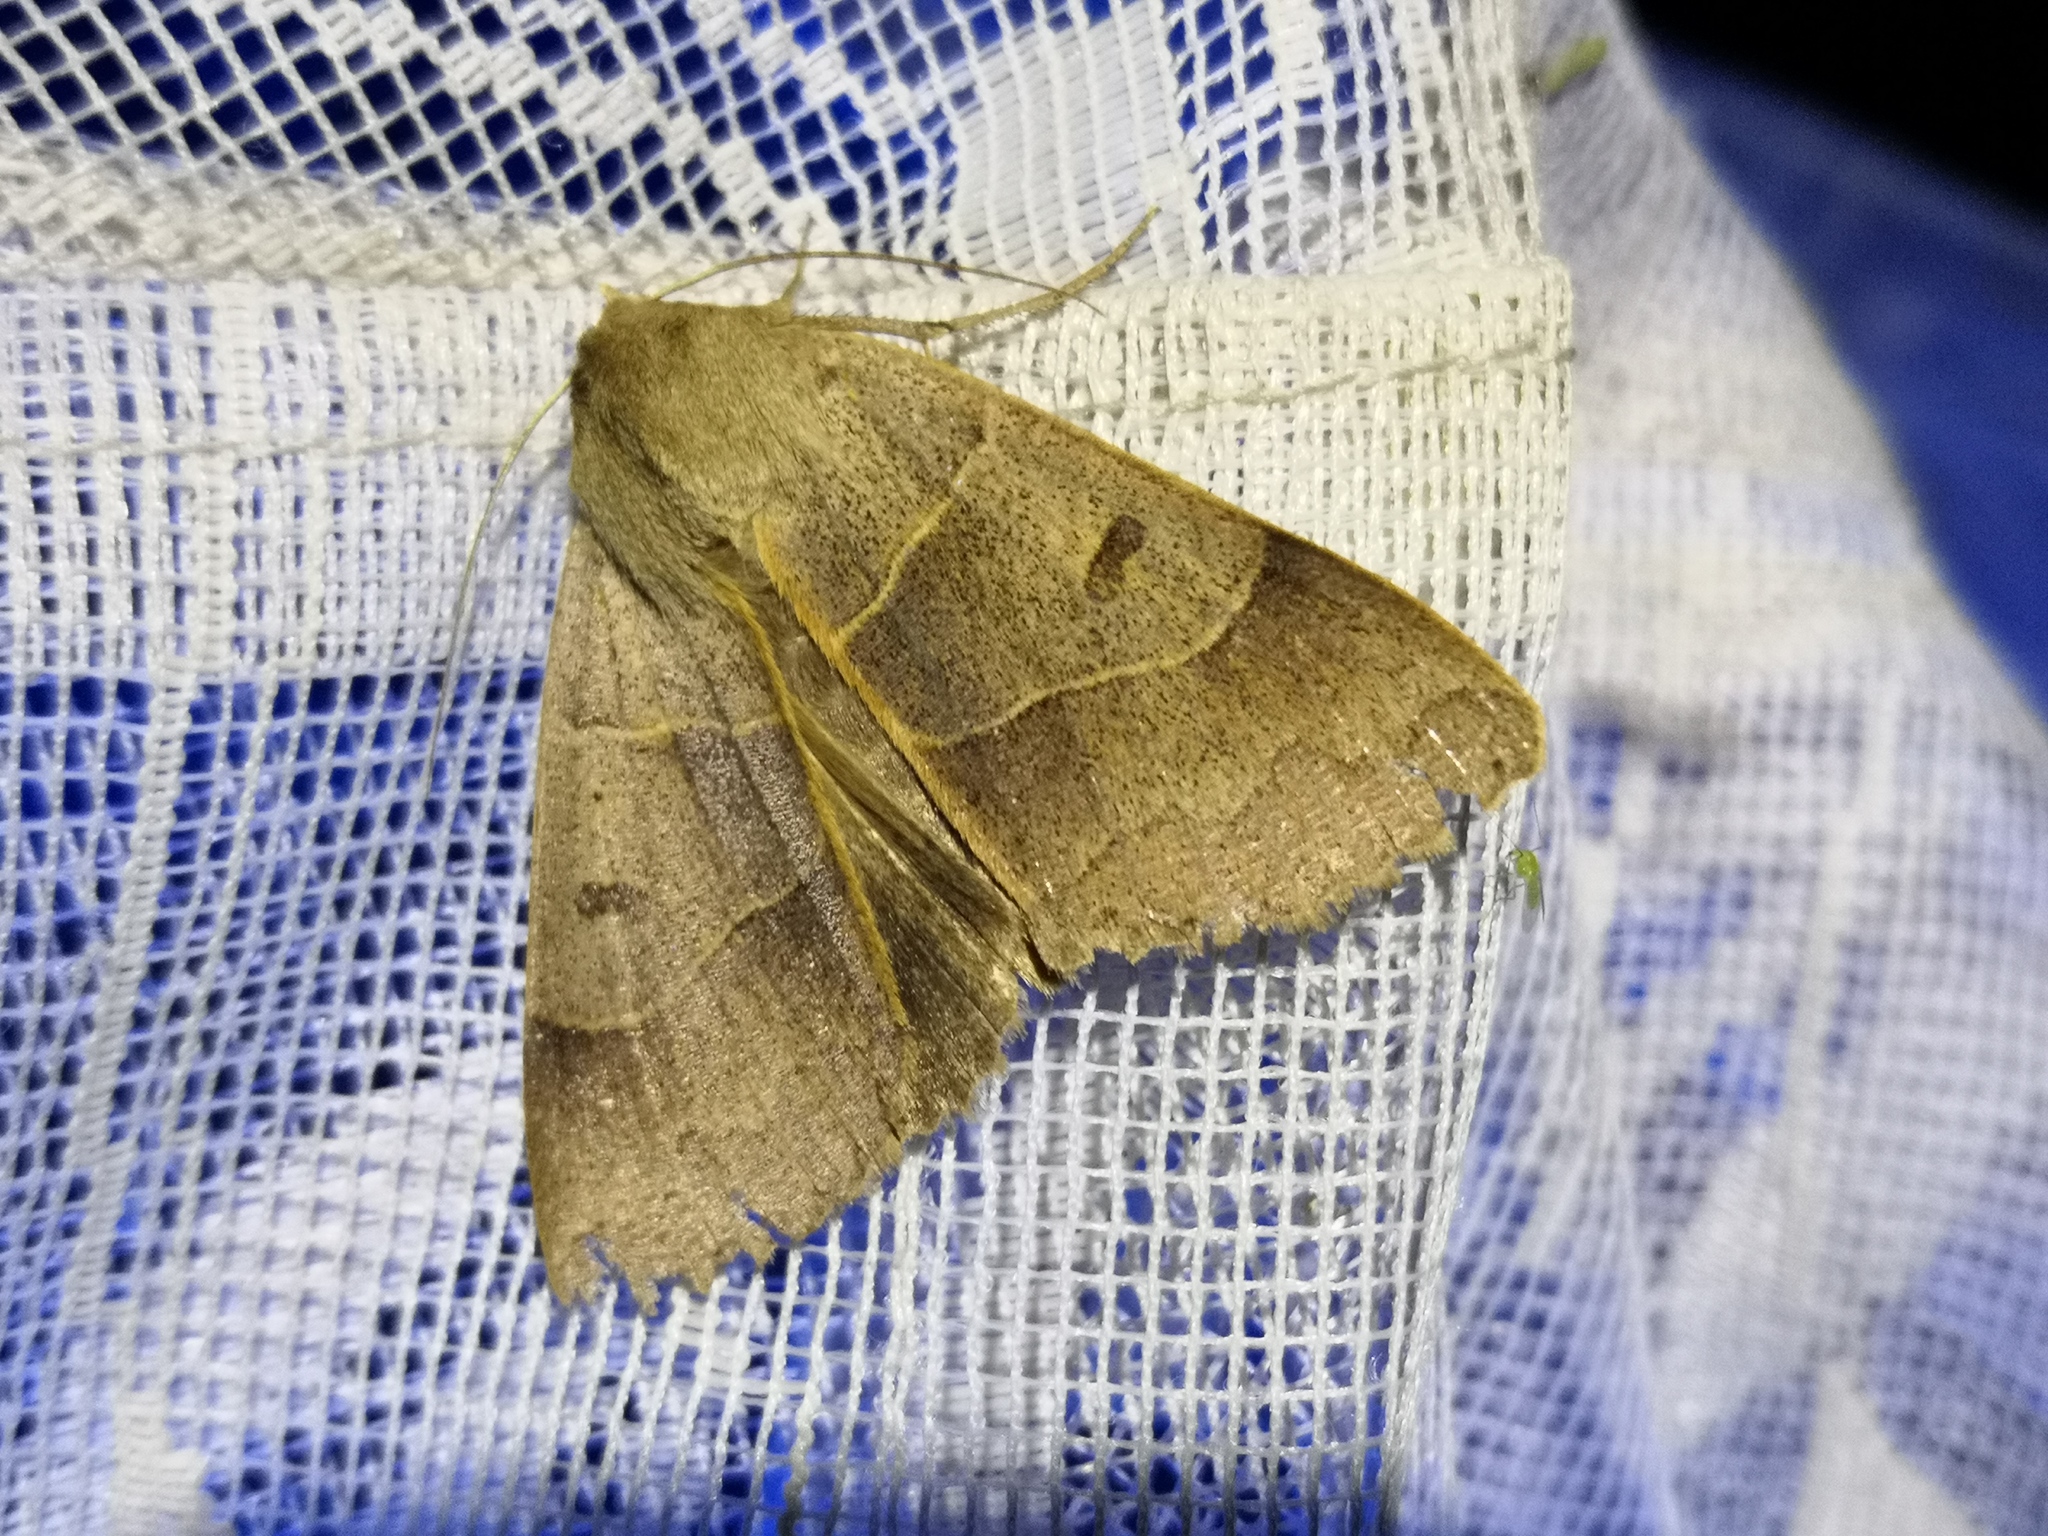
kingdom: Animalia
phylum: Arthropoda
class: Insecta
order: Lepidoptera
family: Erebidae
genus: Minucia
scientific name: Minucia lunaris
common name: Lunar double-stripe
